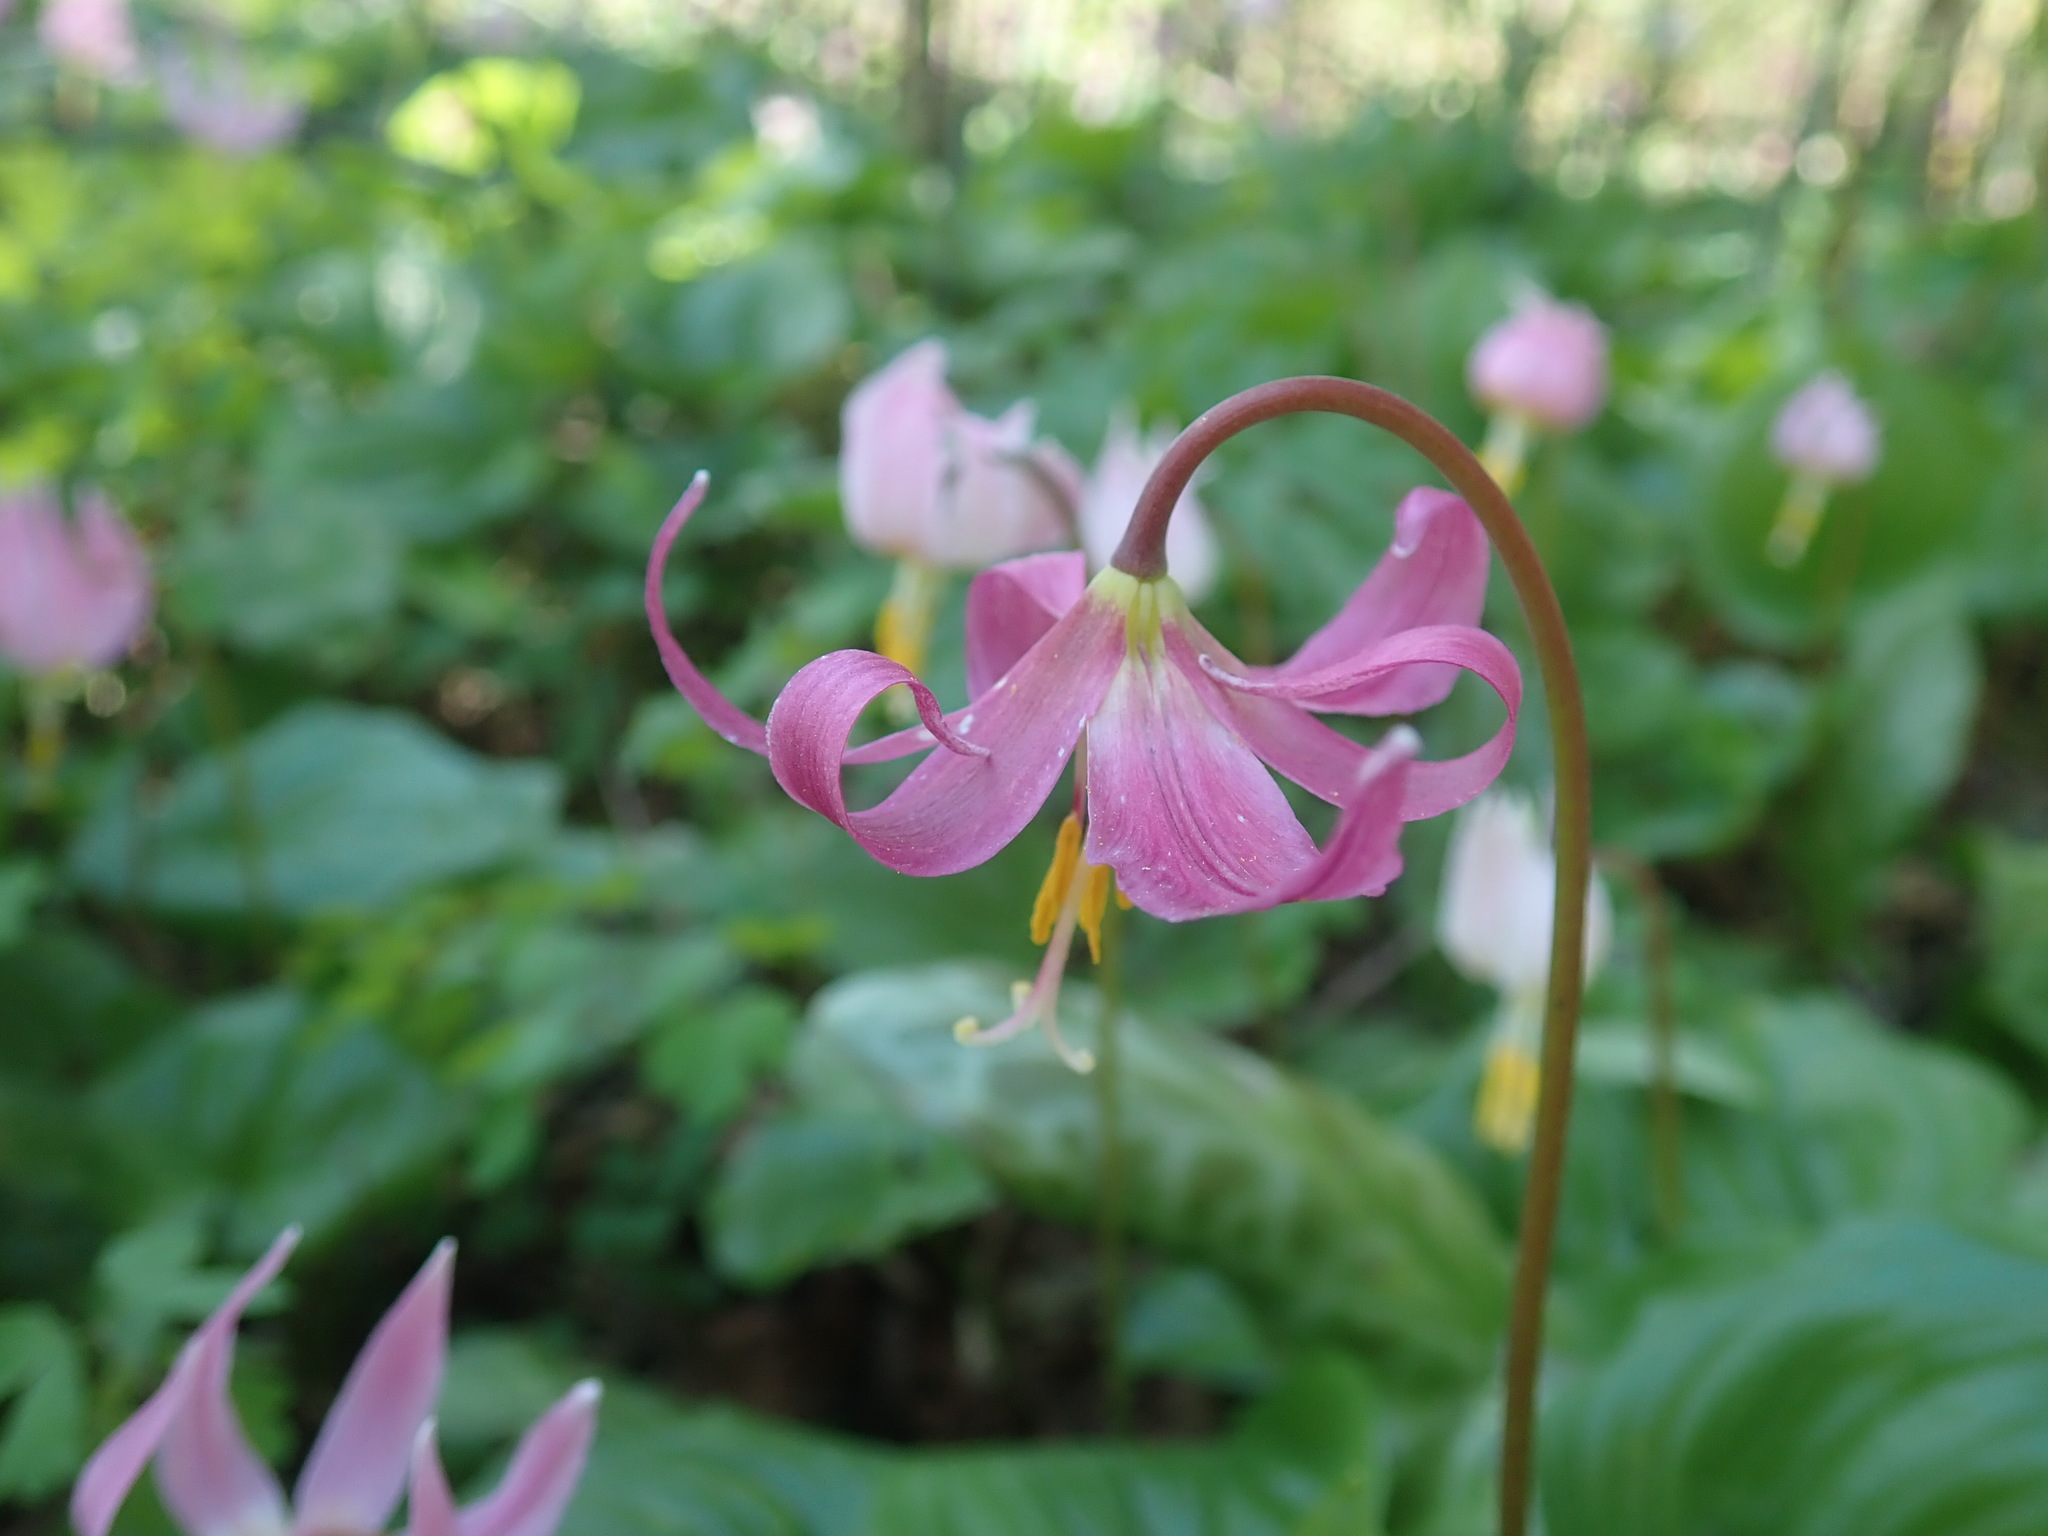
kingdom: Plantae
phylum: Tracheophyta
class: Liliopsida
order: Liliales
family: Liliaceae
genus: Erythronium
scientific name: Erythronium revolutum
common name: Pink fawn-lily
